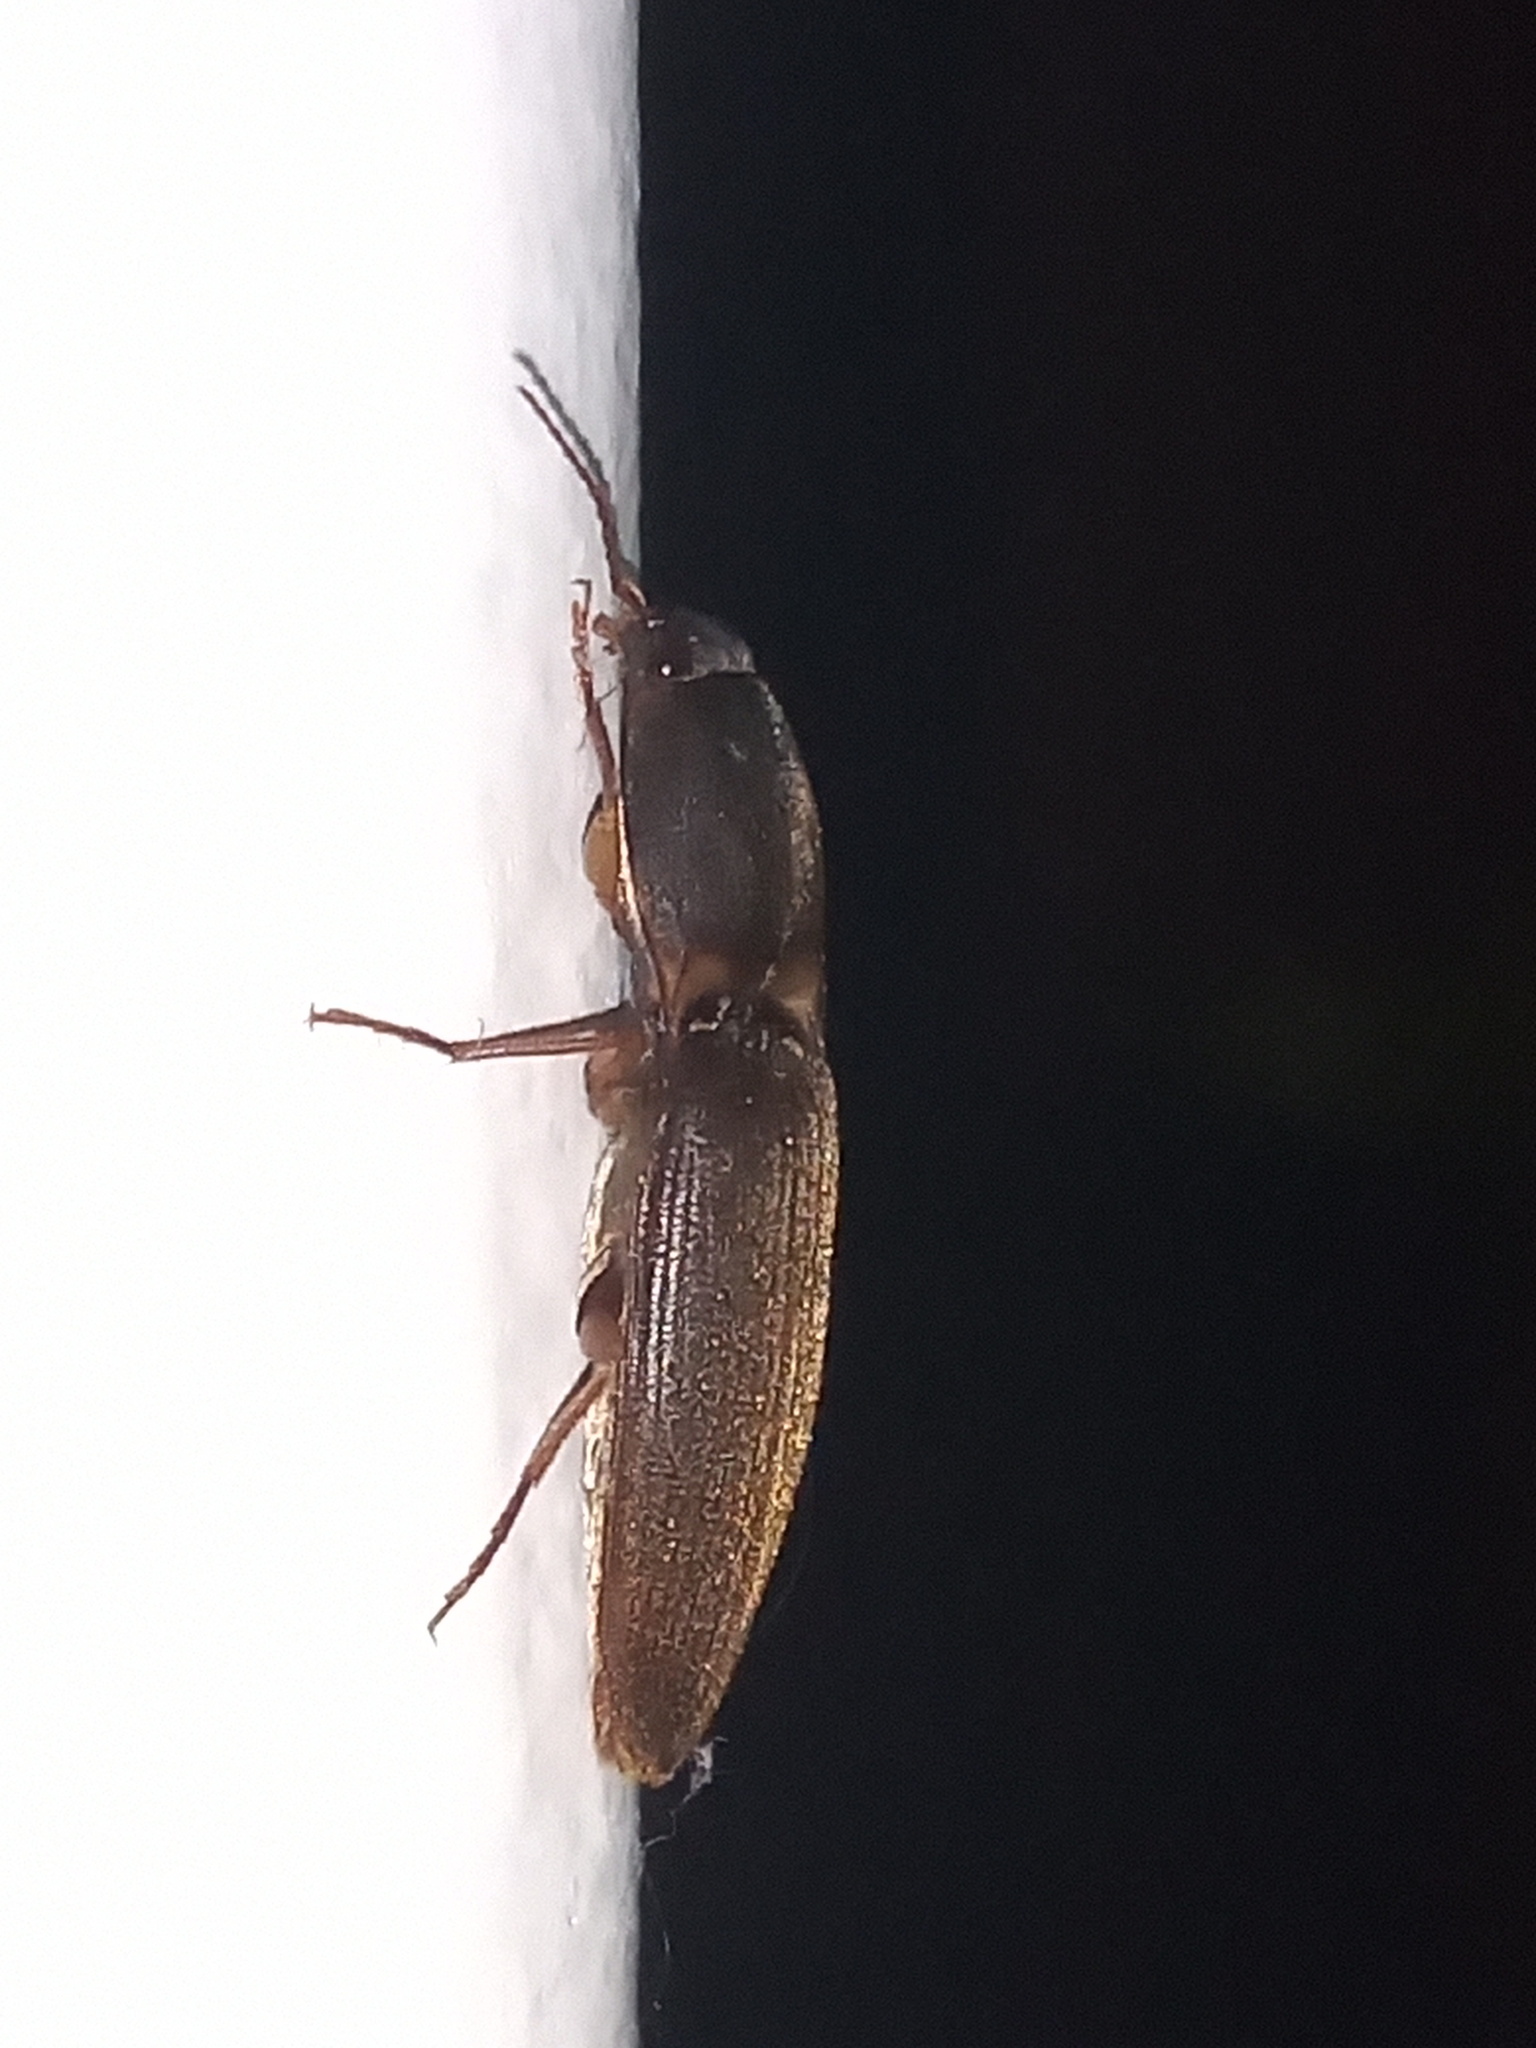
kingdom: Animalia
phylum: Arthropoda
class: Insecta
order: Coleoptera
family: Elateridae
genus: Monocrepidius
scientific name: Monocrepidius
